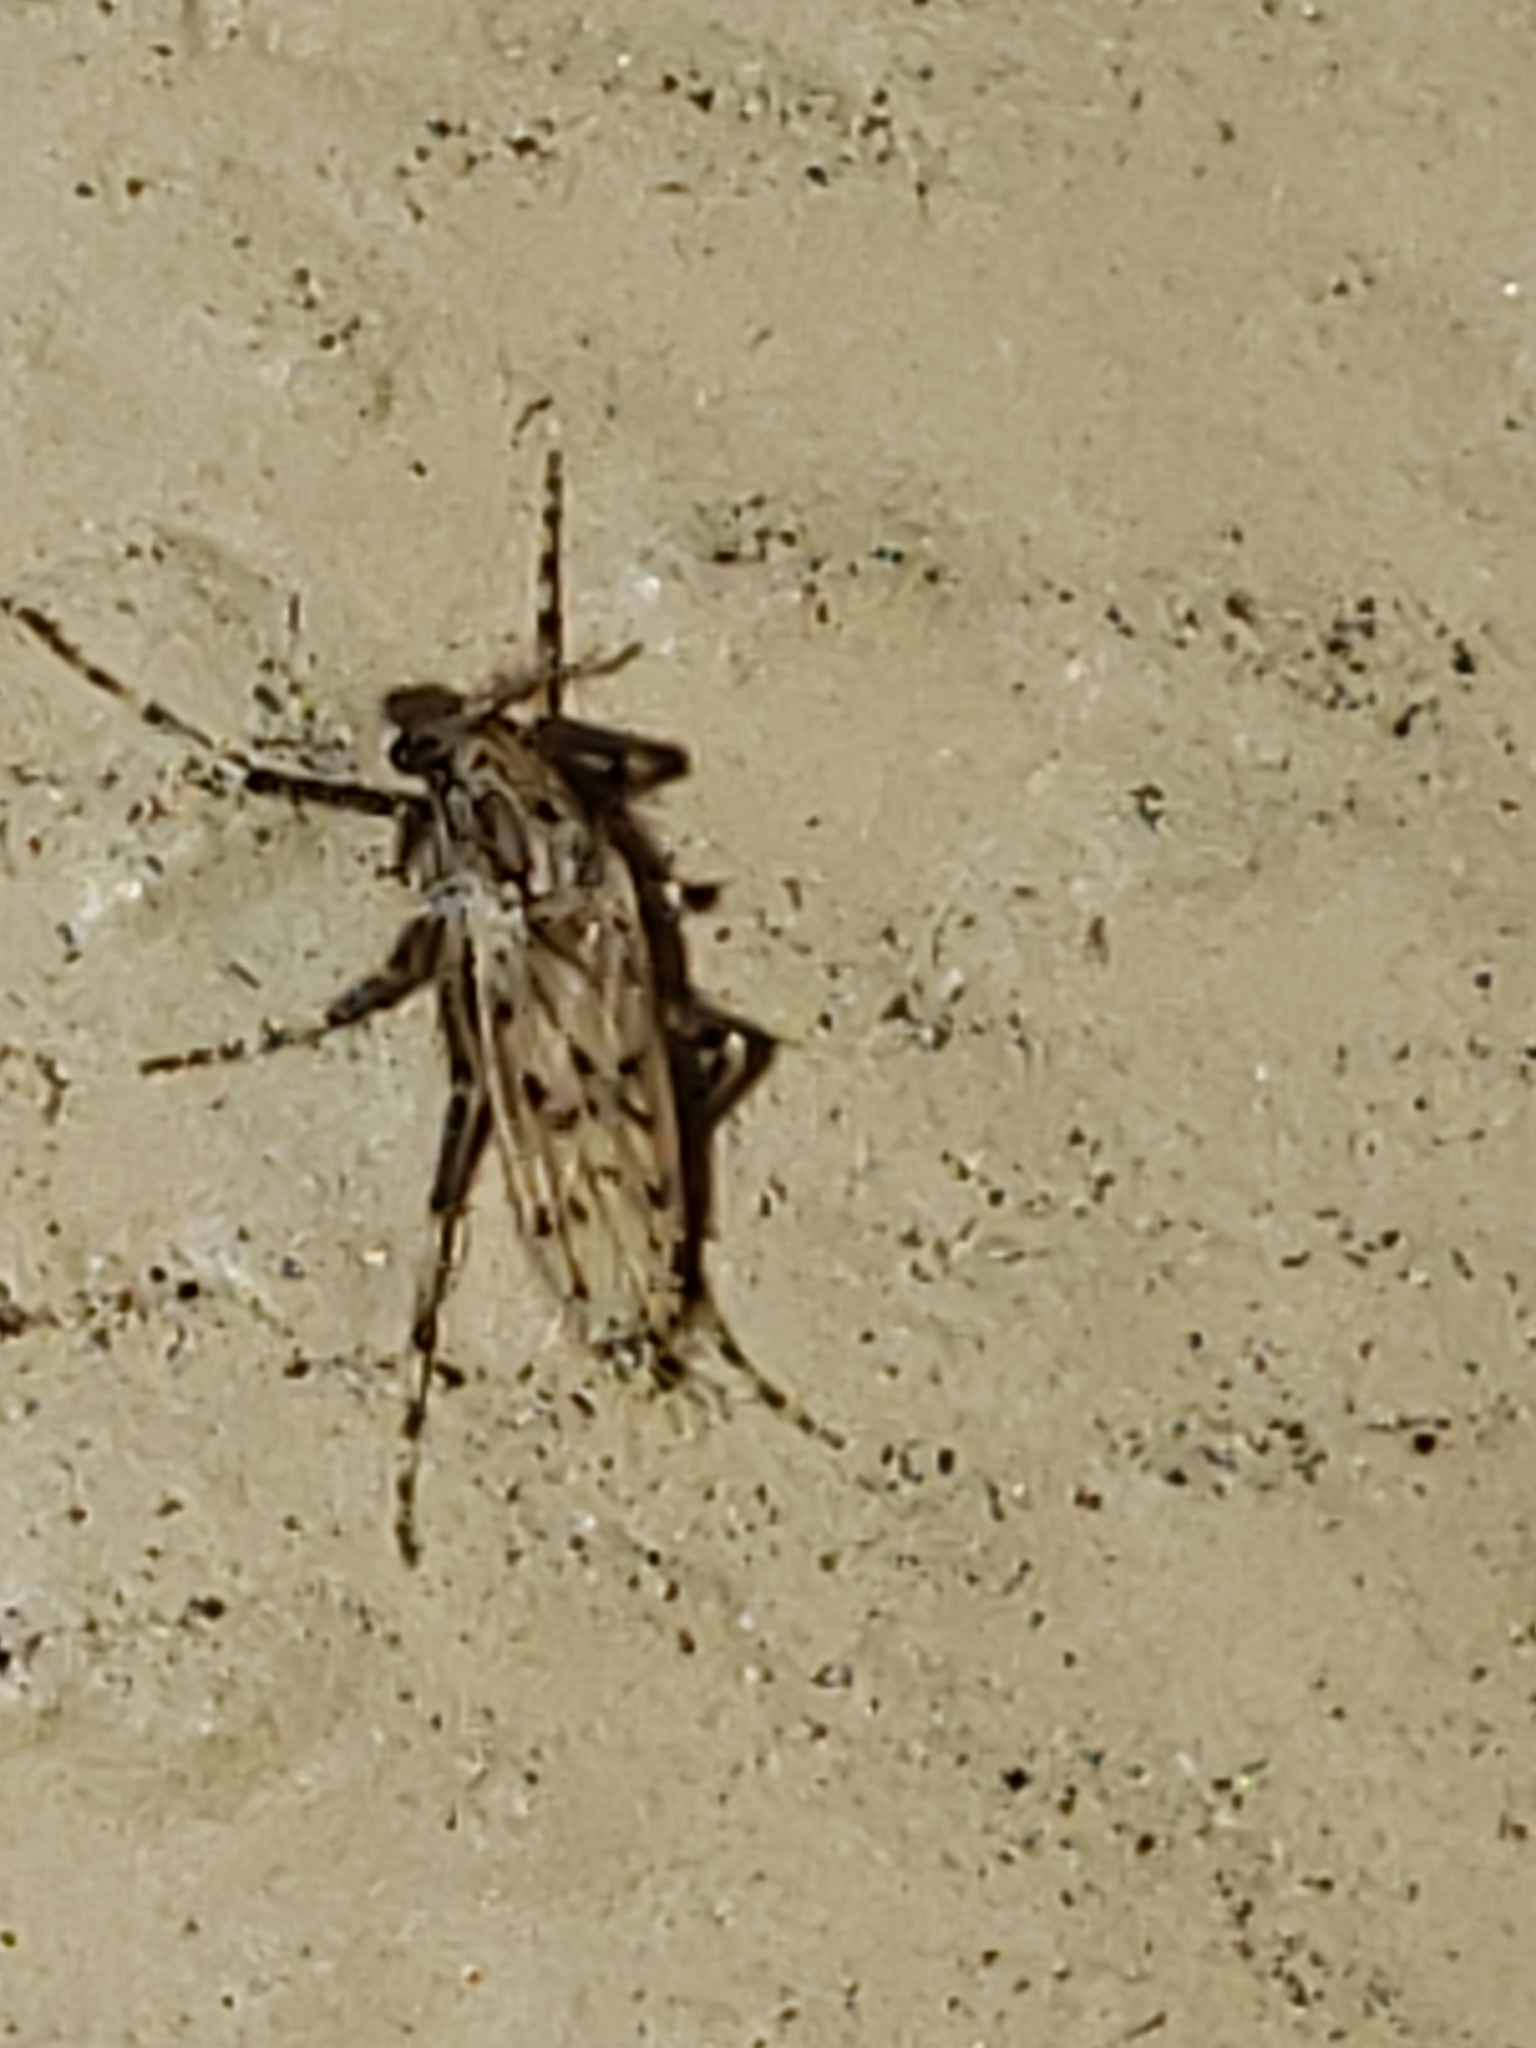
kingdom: Animalia
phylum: Arthropoda
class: Insecta
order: Diptera
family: Chaoboridae
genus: Chaoborus
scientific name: Chaoborus punctipennis
